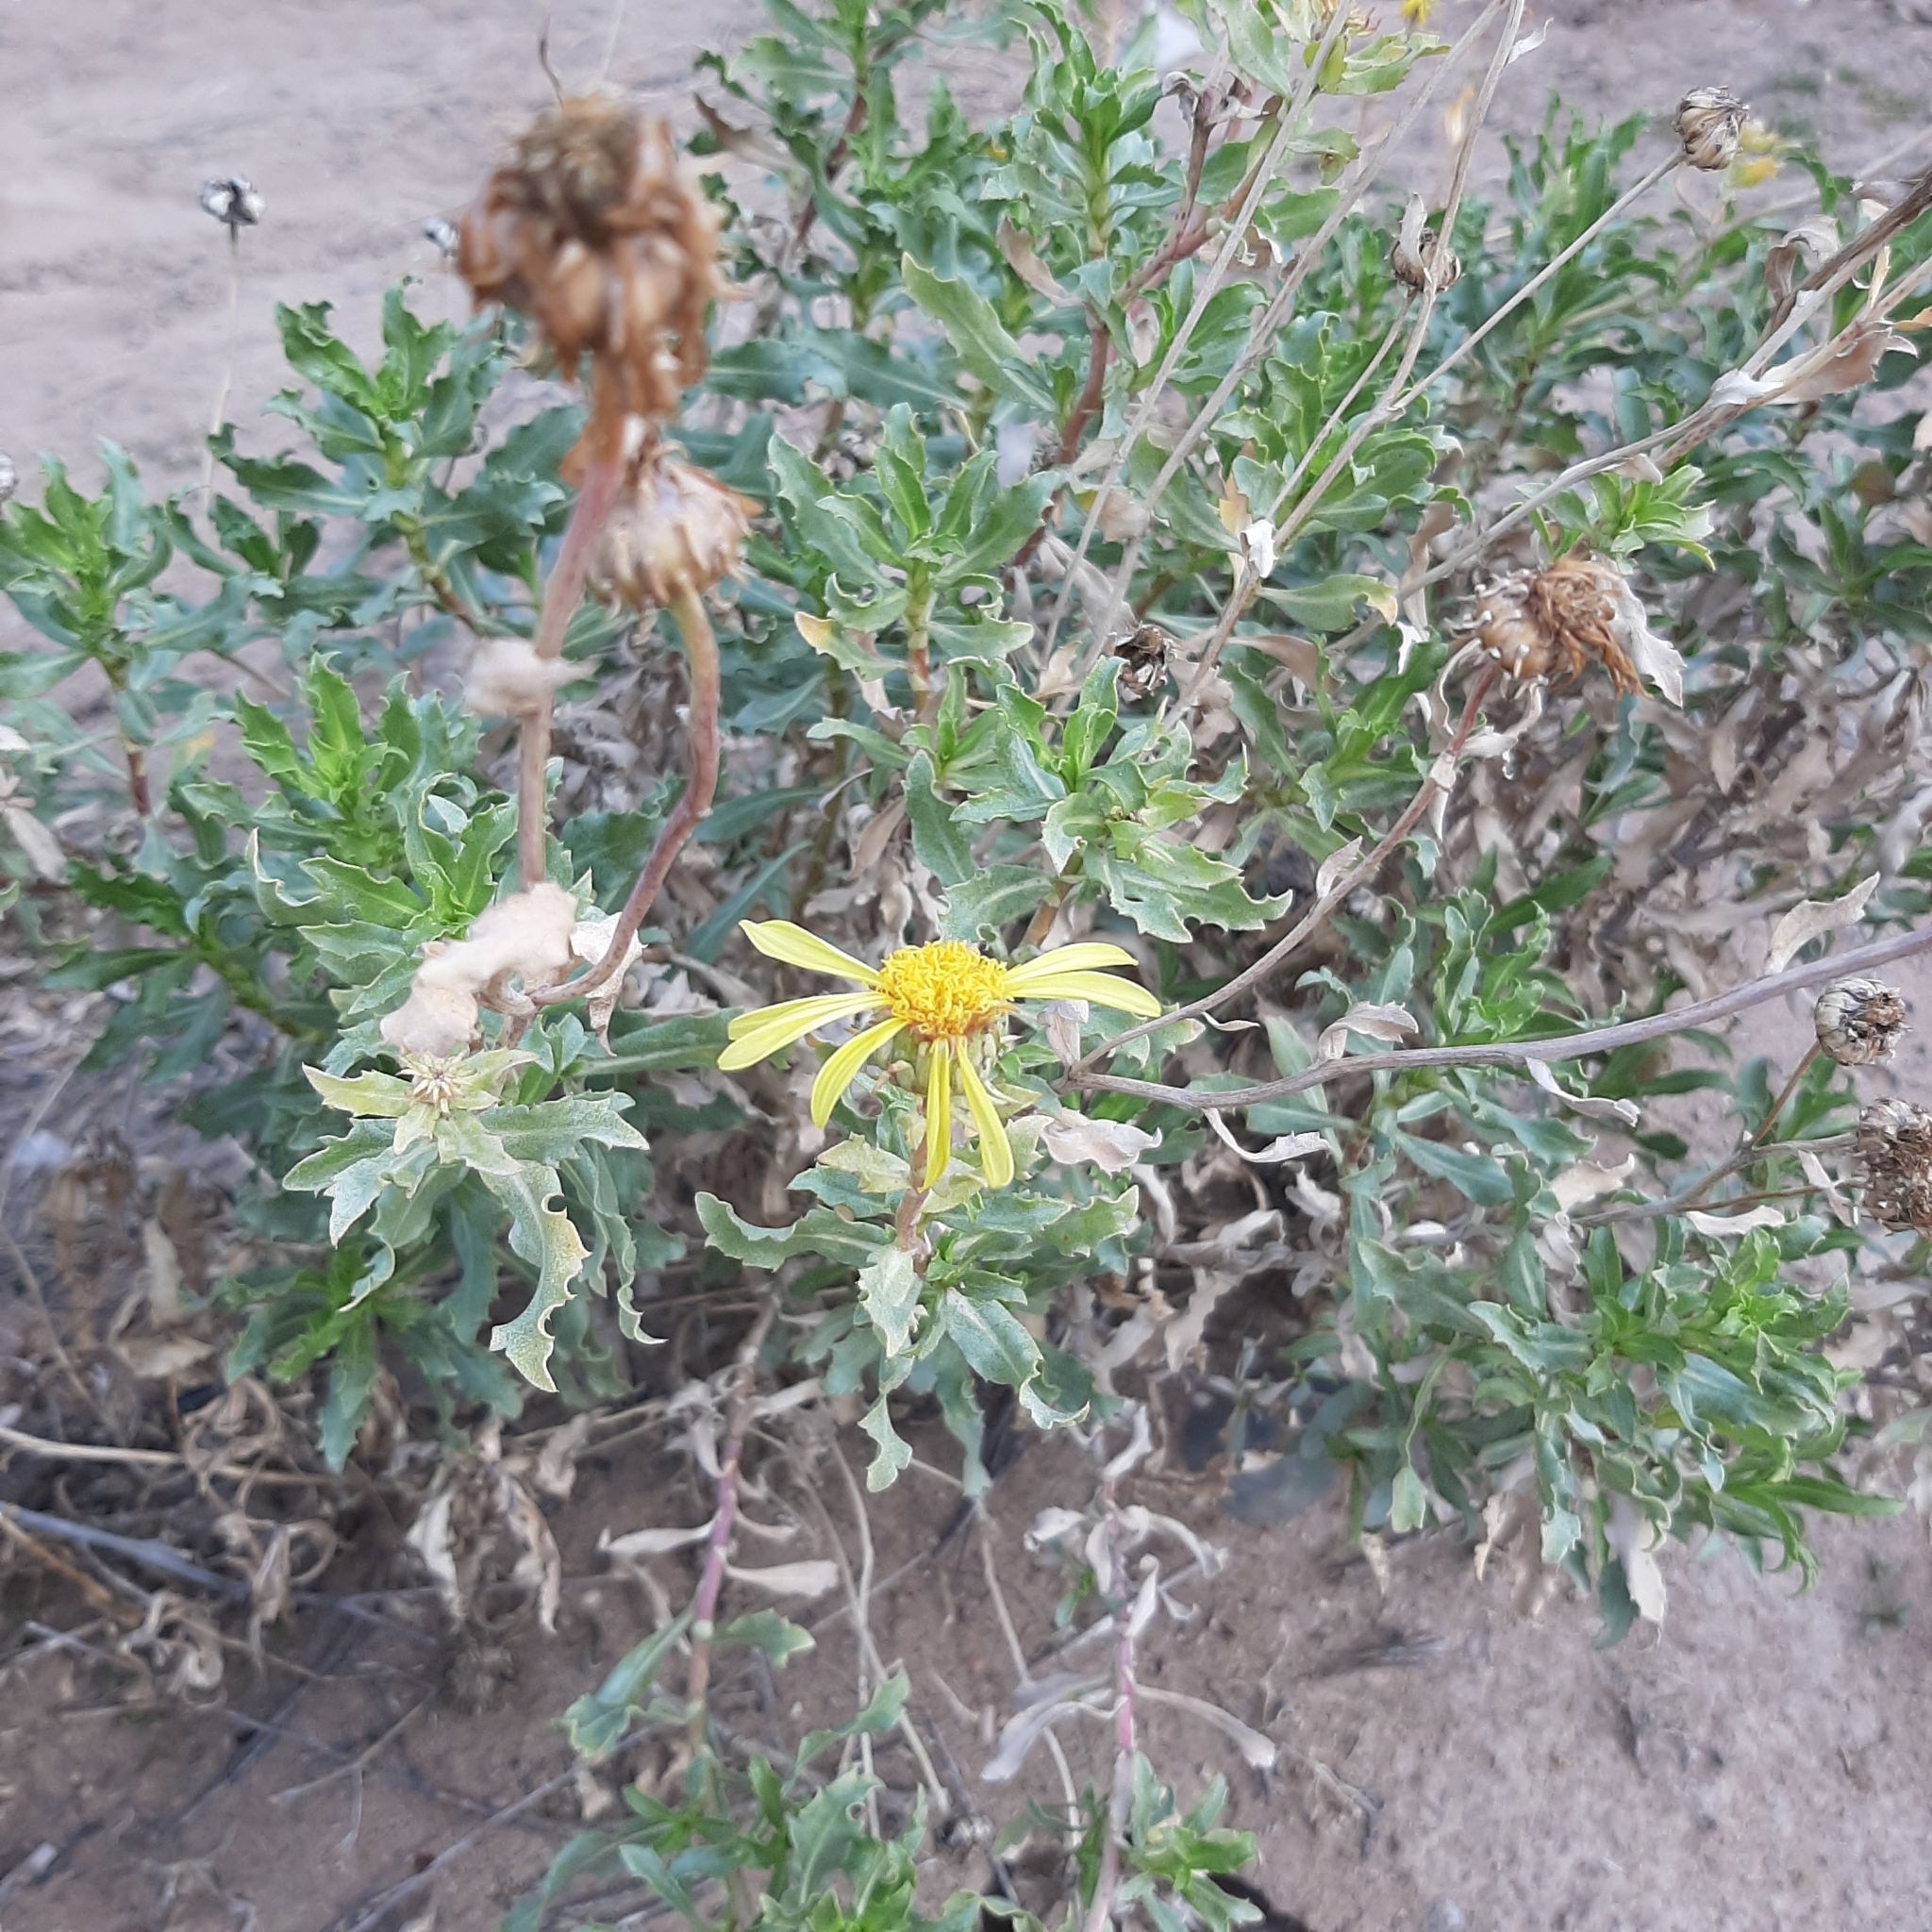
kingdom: Plantae
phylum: Tracheophyta
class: Magnoliopsida
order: Asterales
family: Asteraceae
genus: Grindelia
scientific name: Grindelia chiloensis
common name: Shrubby gumweed
